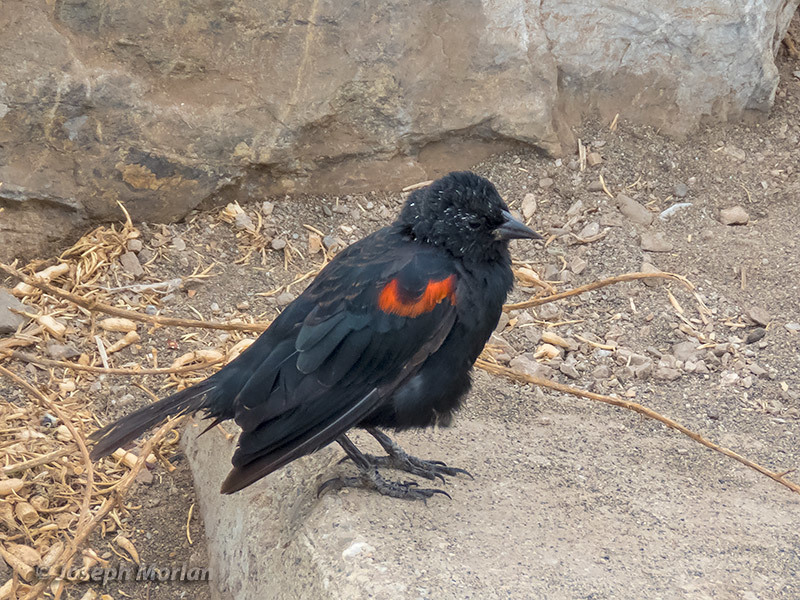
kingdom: Animalia
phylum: Chordata
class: Aves
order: Passeriformes
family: Icteridae
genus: Agelaius
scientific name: Agelaius phoeniceus
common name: Red-winged blackbird
